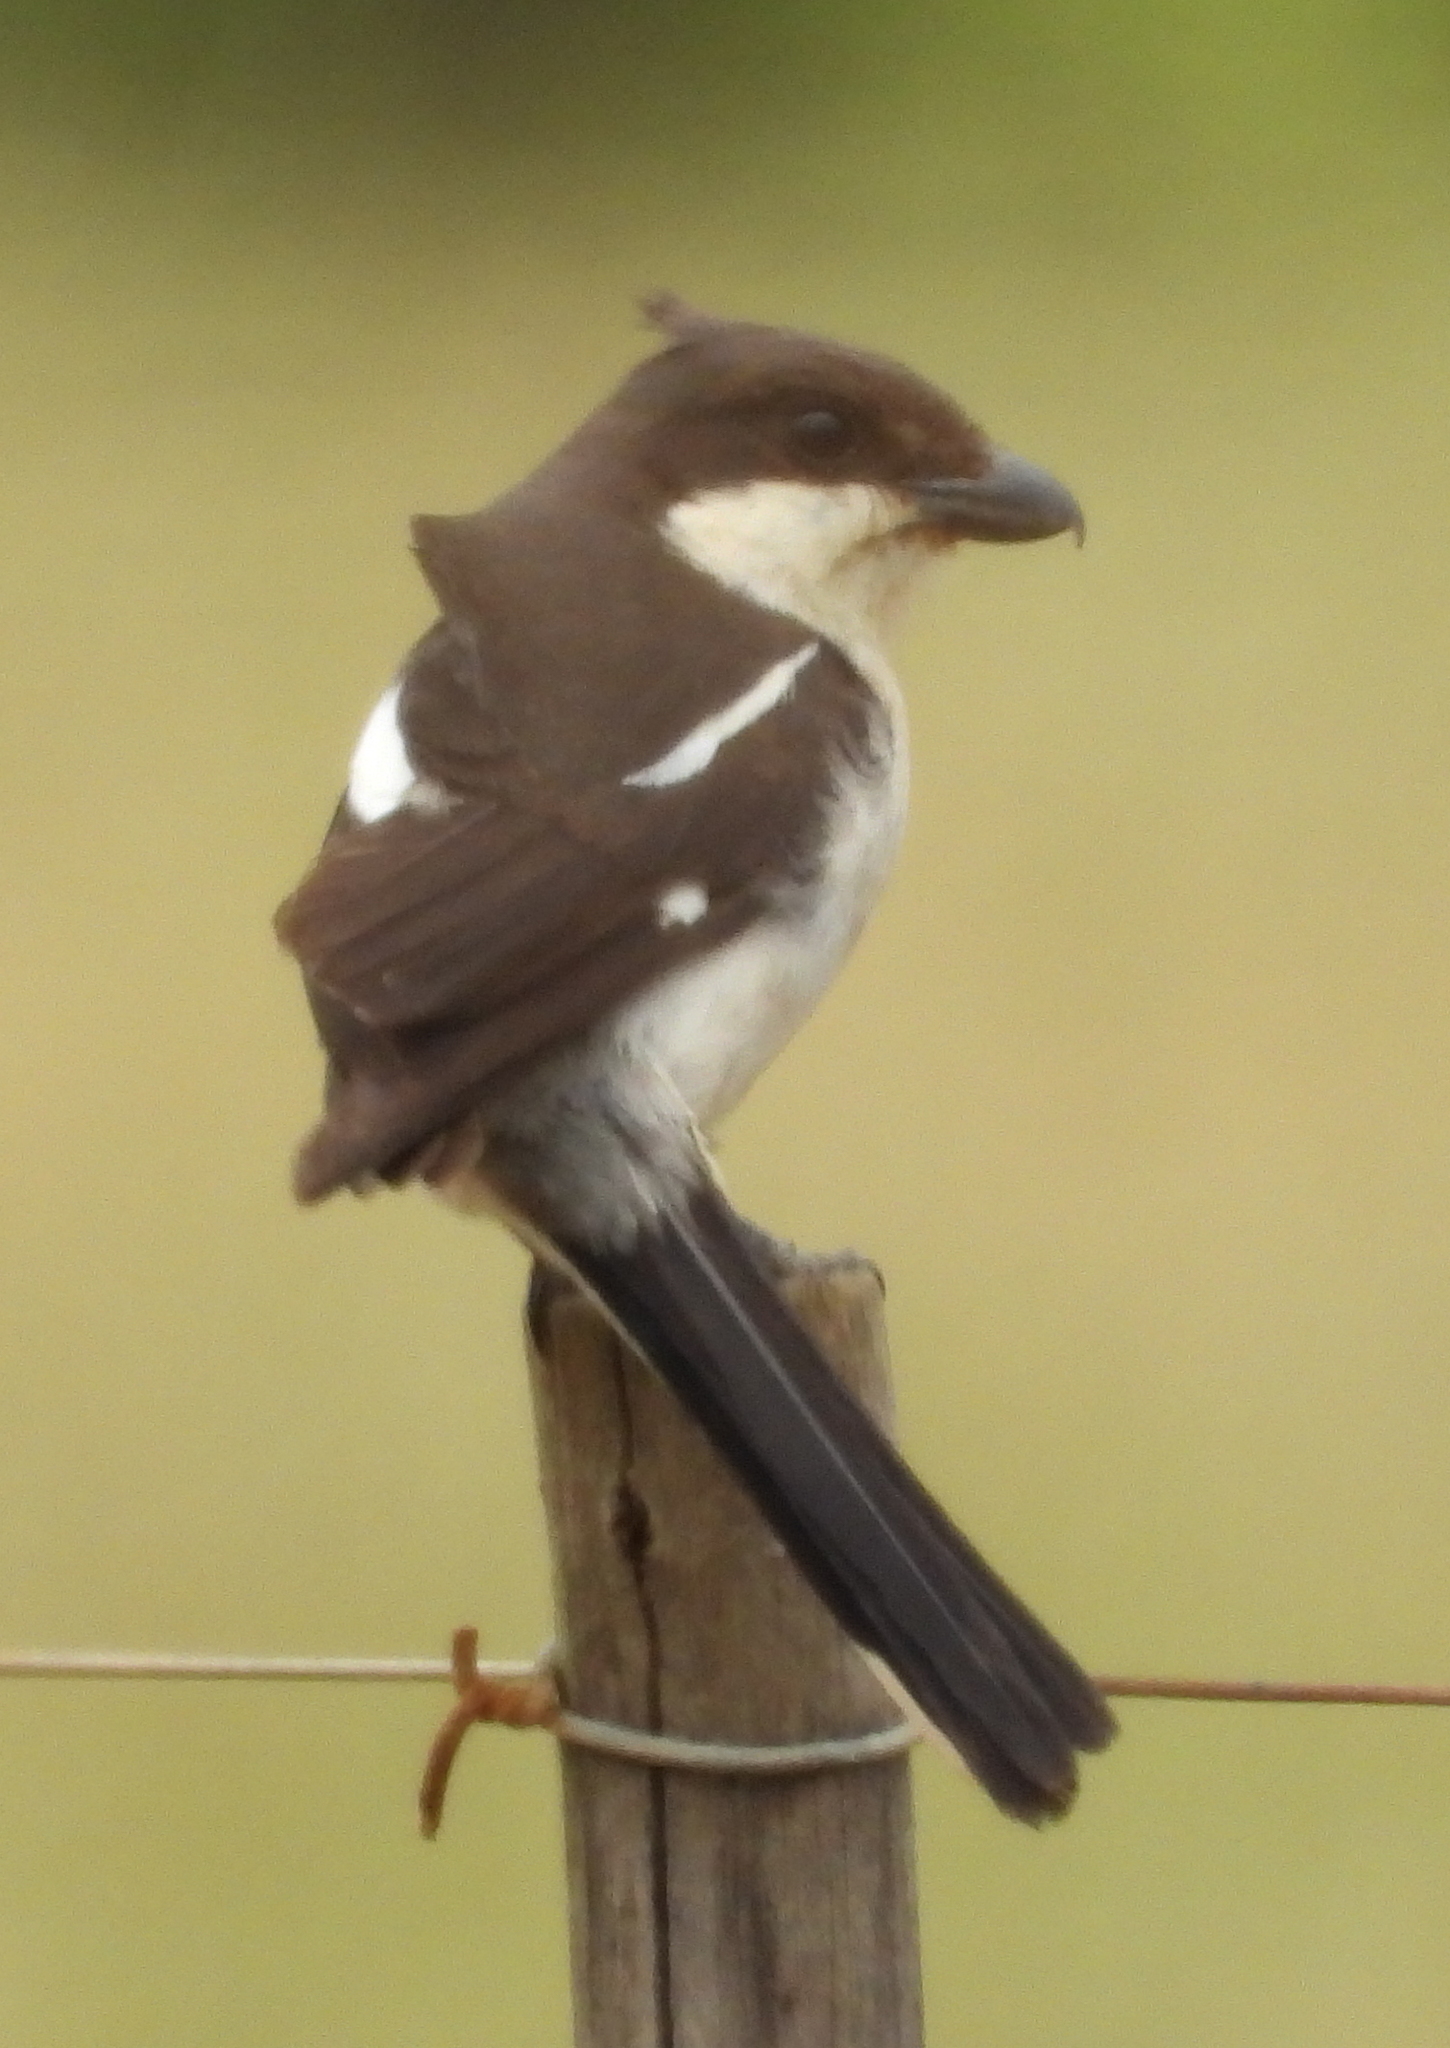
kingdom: Animalia
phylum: Chordata
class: Aves
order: Passeriformes
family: Laniidae
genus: Lanius
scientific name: Lanius collaris
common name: Southern fiscal
